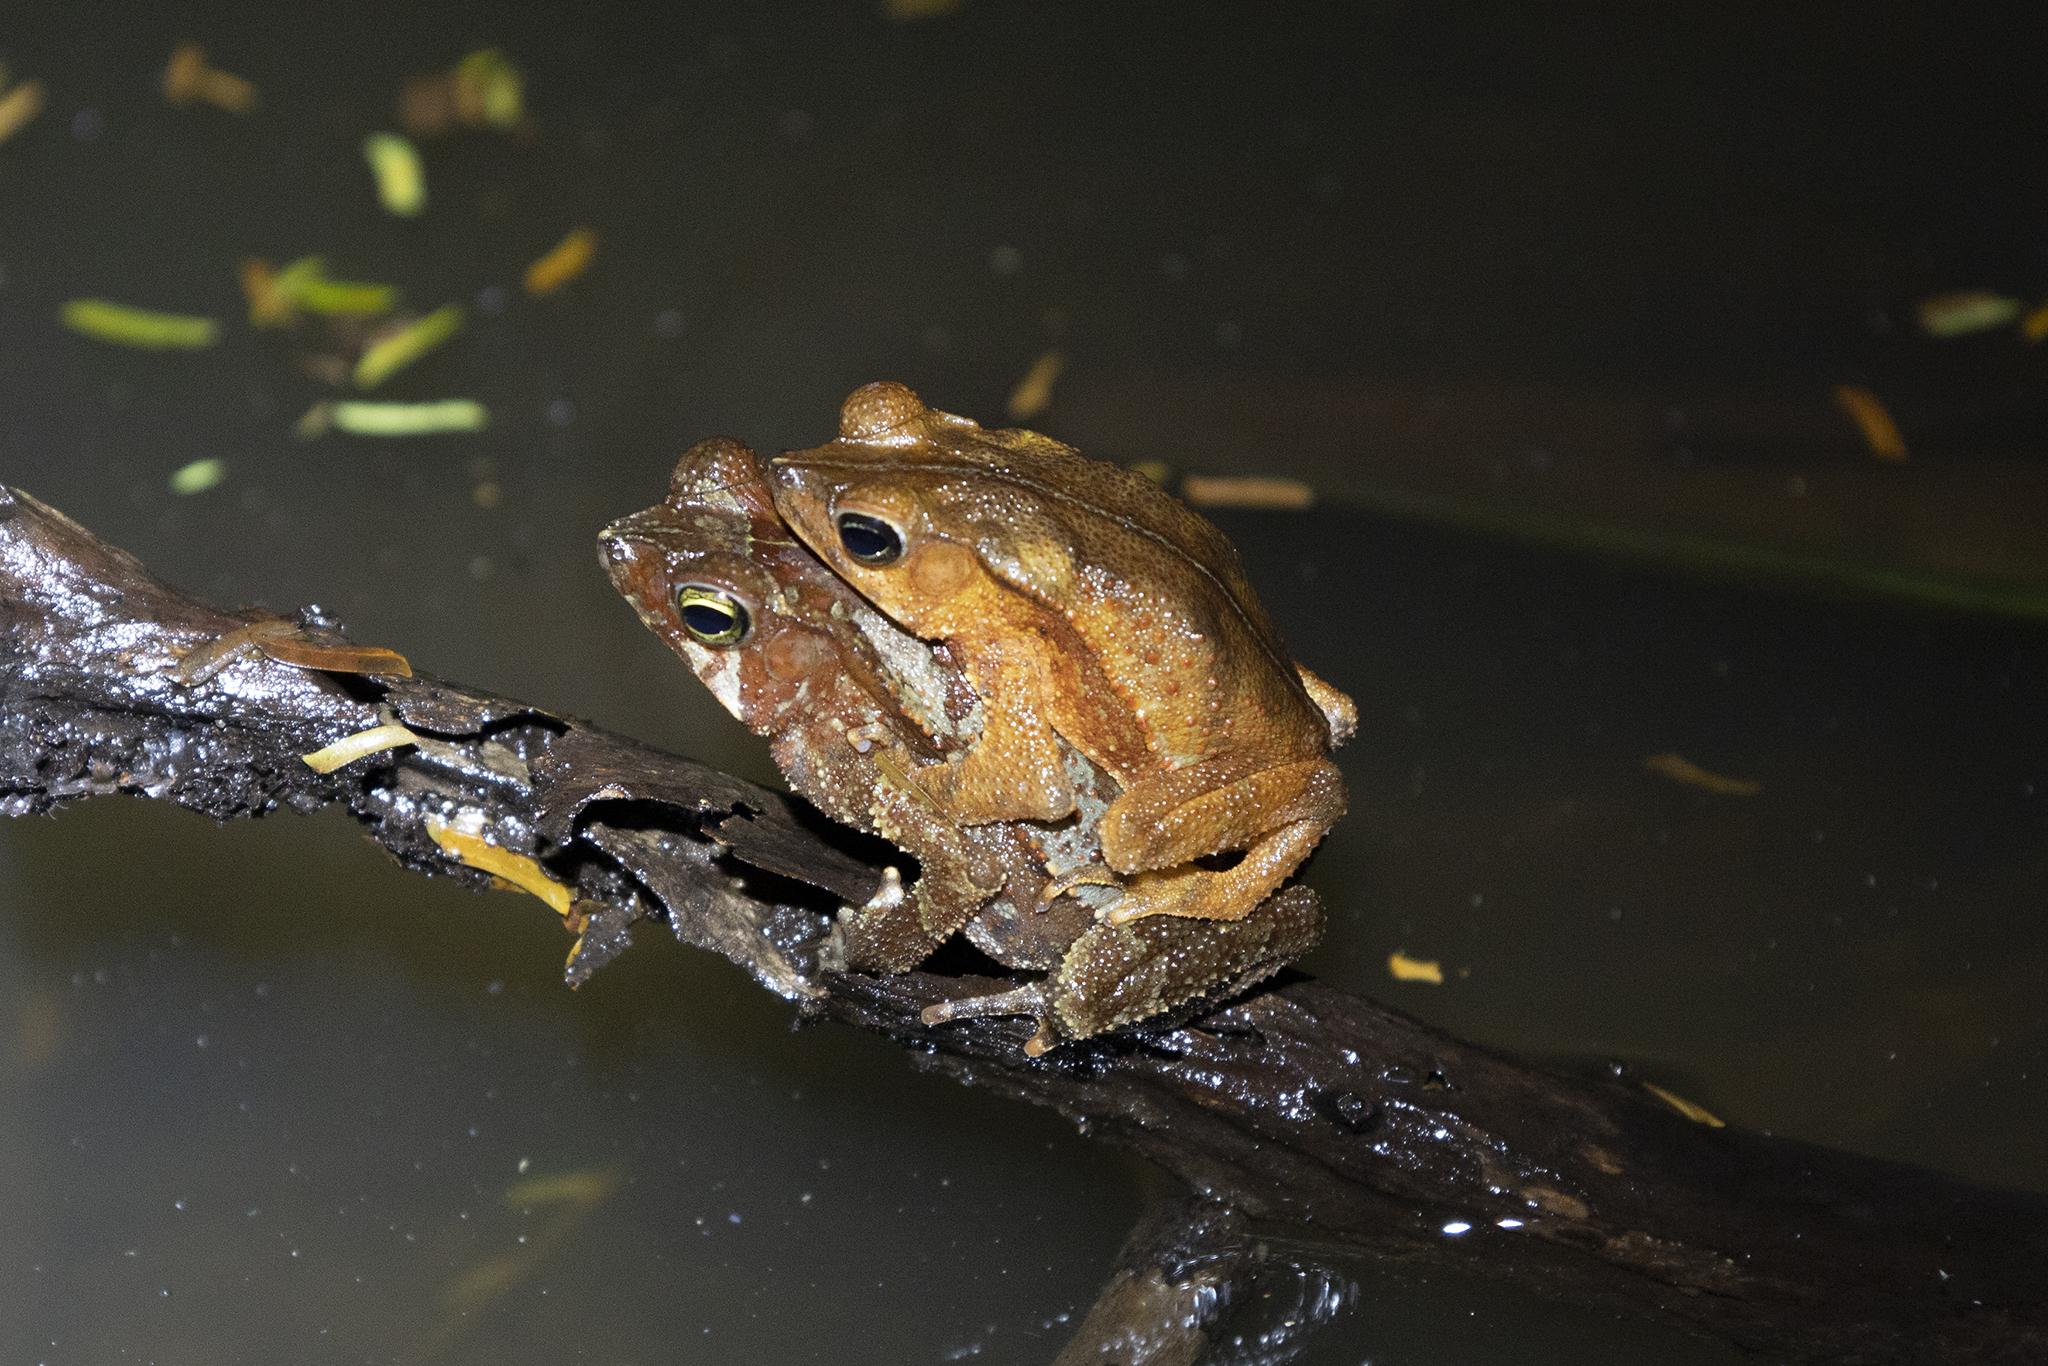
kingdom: Animalia
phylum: Chordata
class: Amphibia
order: Anura
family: Bufonidae
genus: Rhinella
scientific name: Rhinella alata
